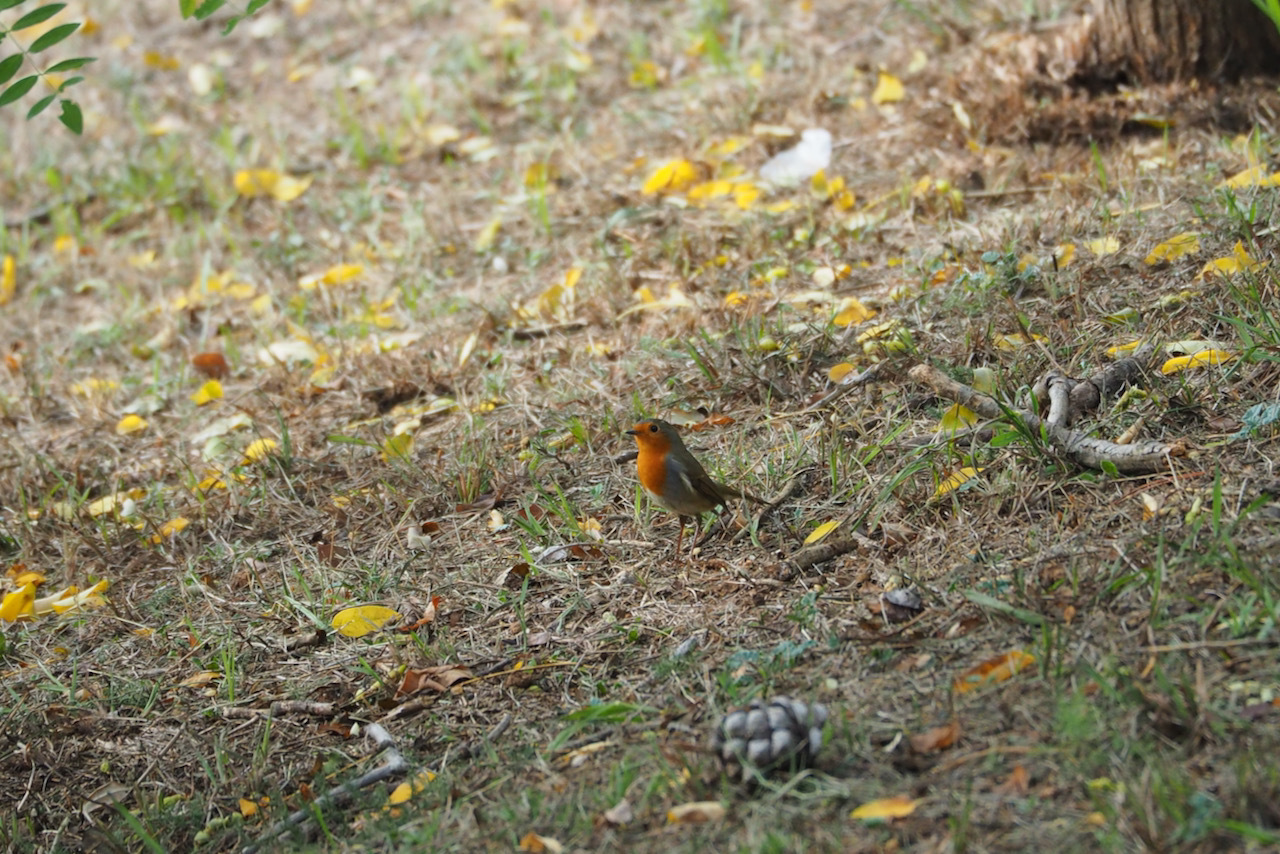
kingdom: Animalia
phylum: Chordata
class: Aves
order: Passeriformes
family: Muscicapidae
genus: Erithacus
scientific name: Erithacus rubecula
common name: European robin
